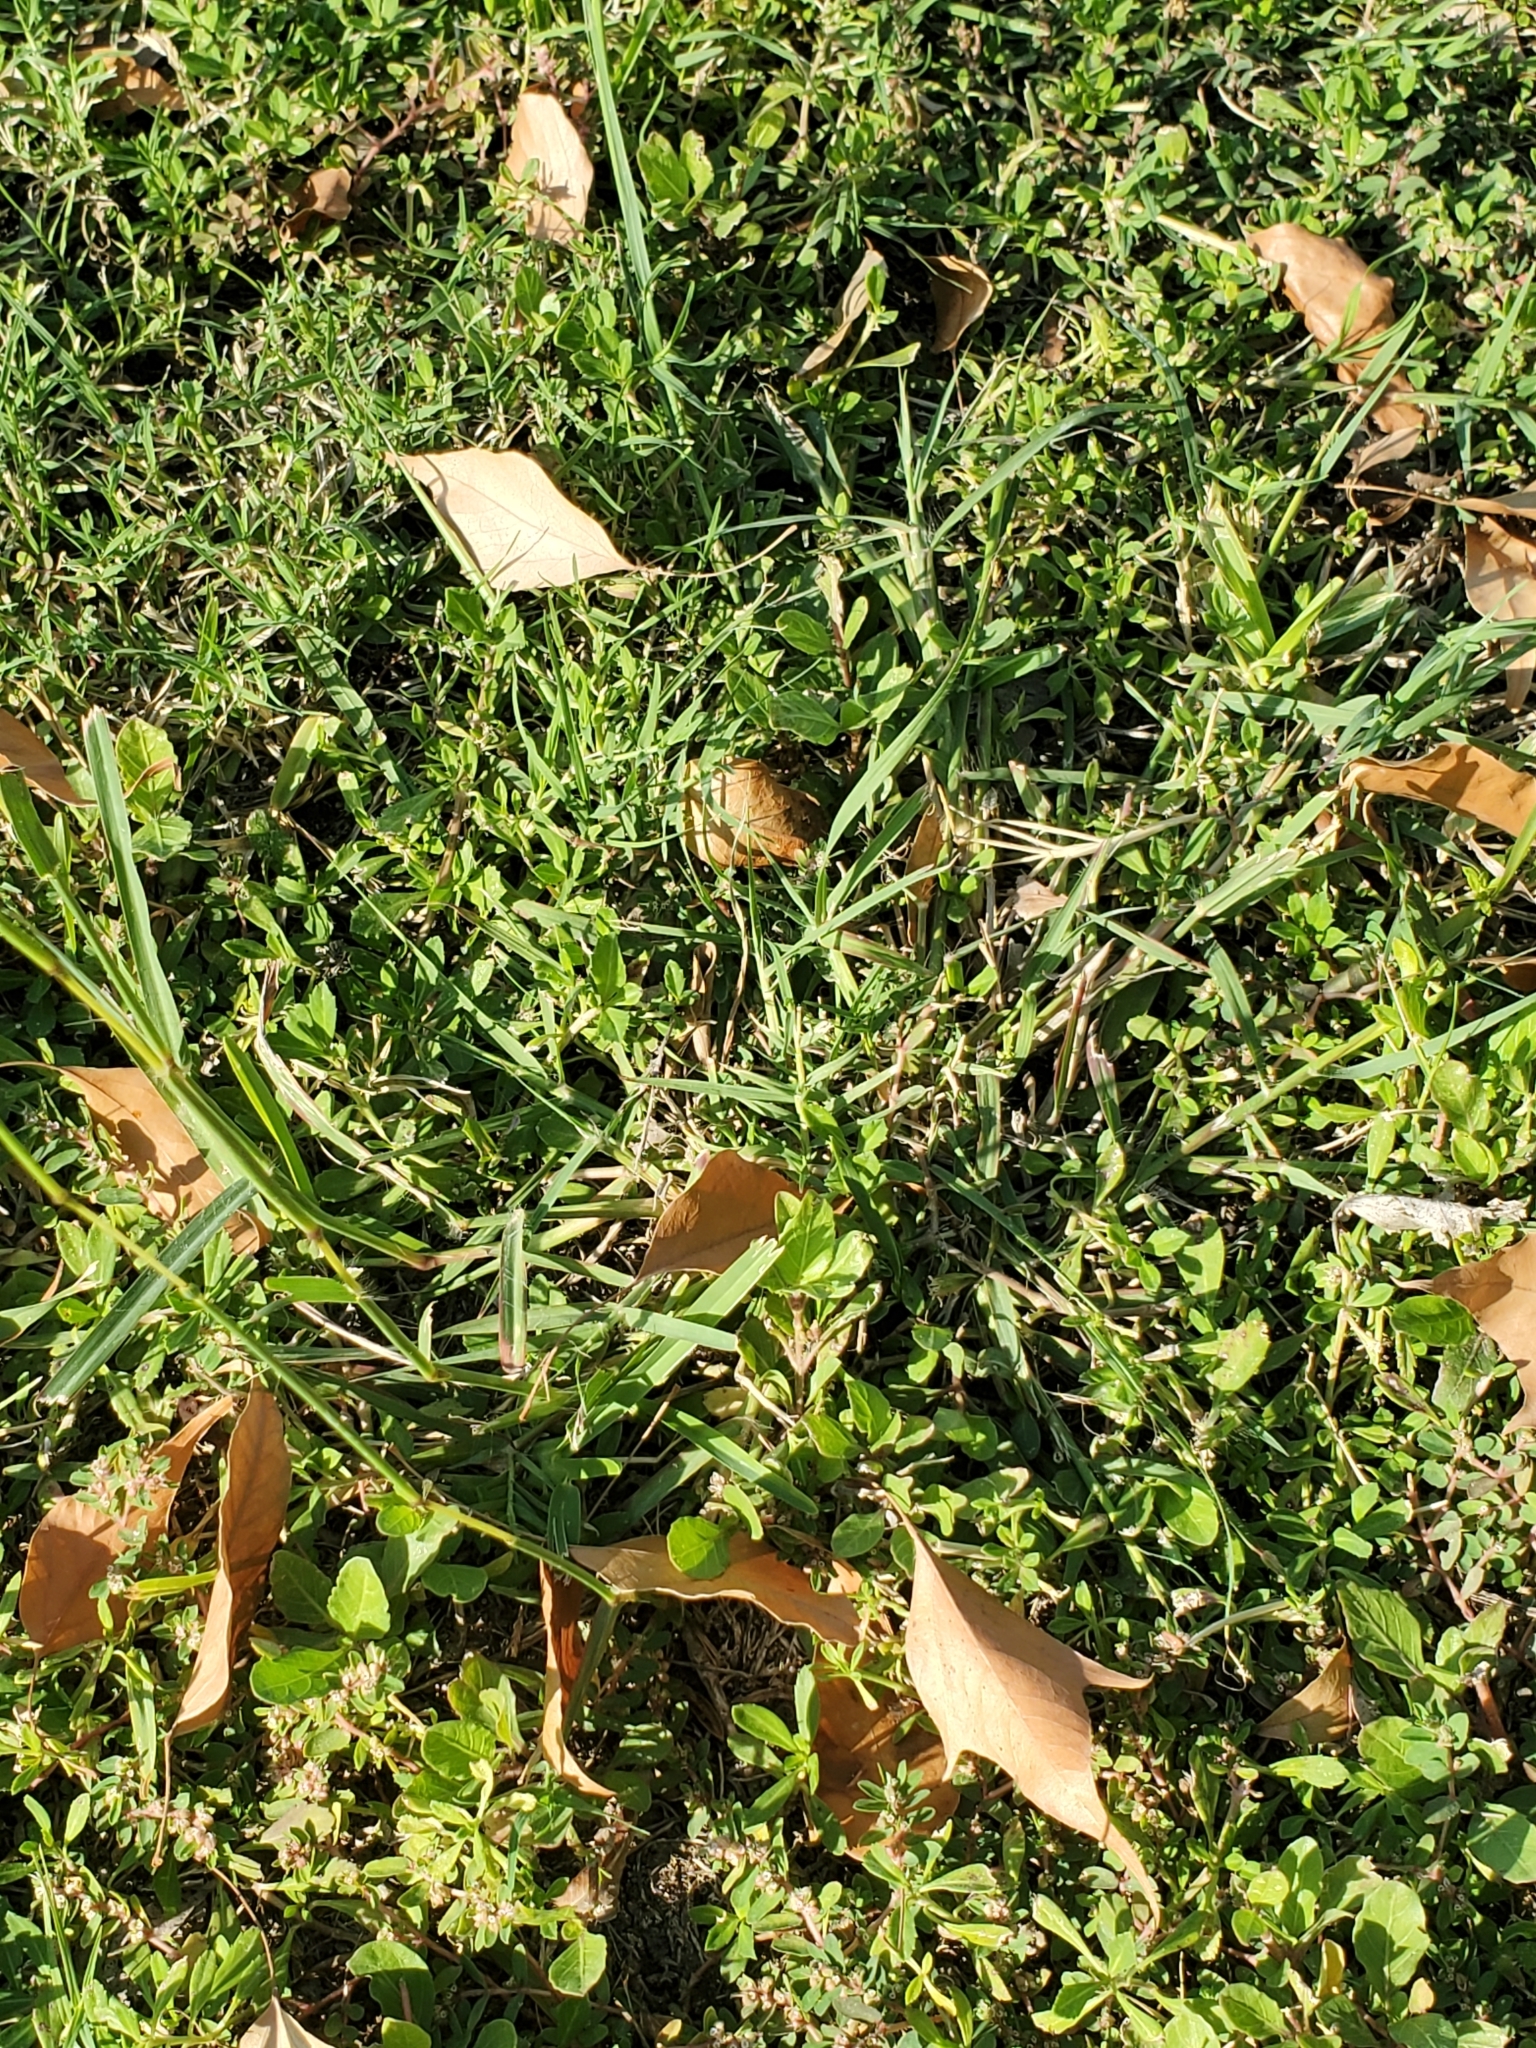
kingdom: Plantae
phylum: Tracheophyta
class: Liliopsida
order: Poales
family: Poaceae
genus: Bothriochloa
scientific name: Bothriochloa ischaemum
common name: Yellow bluestem
